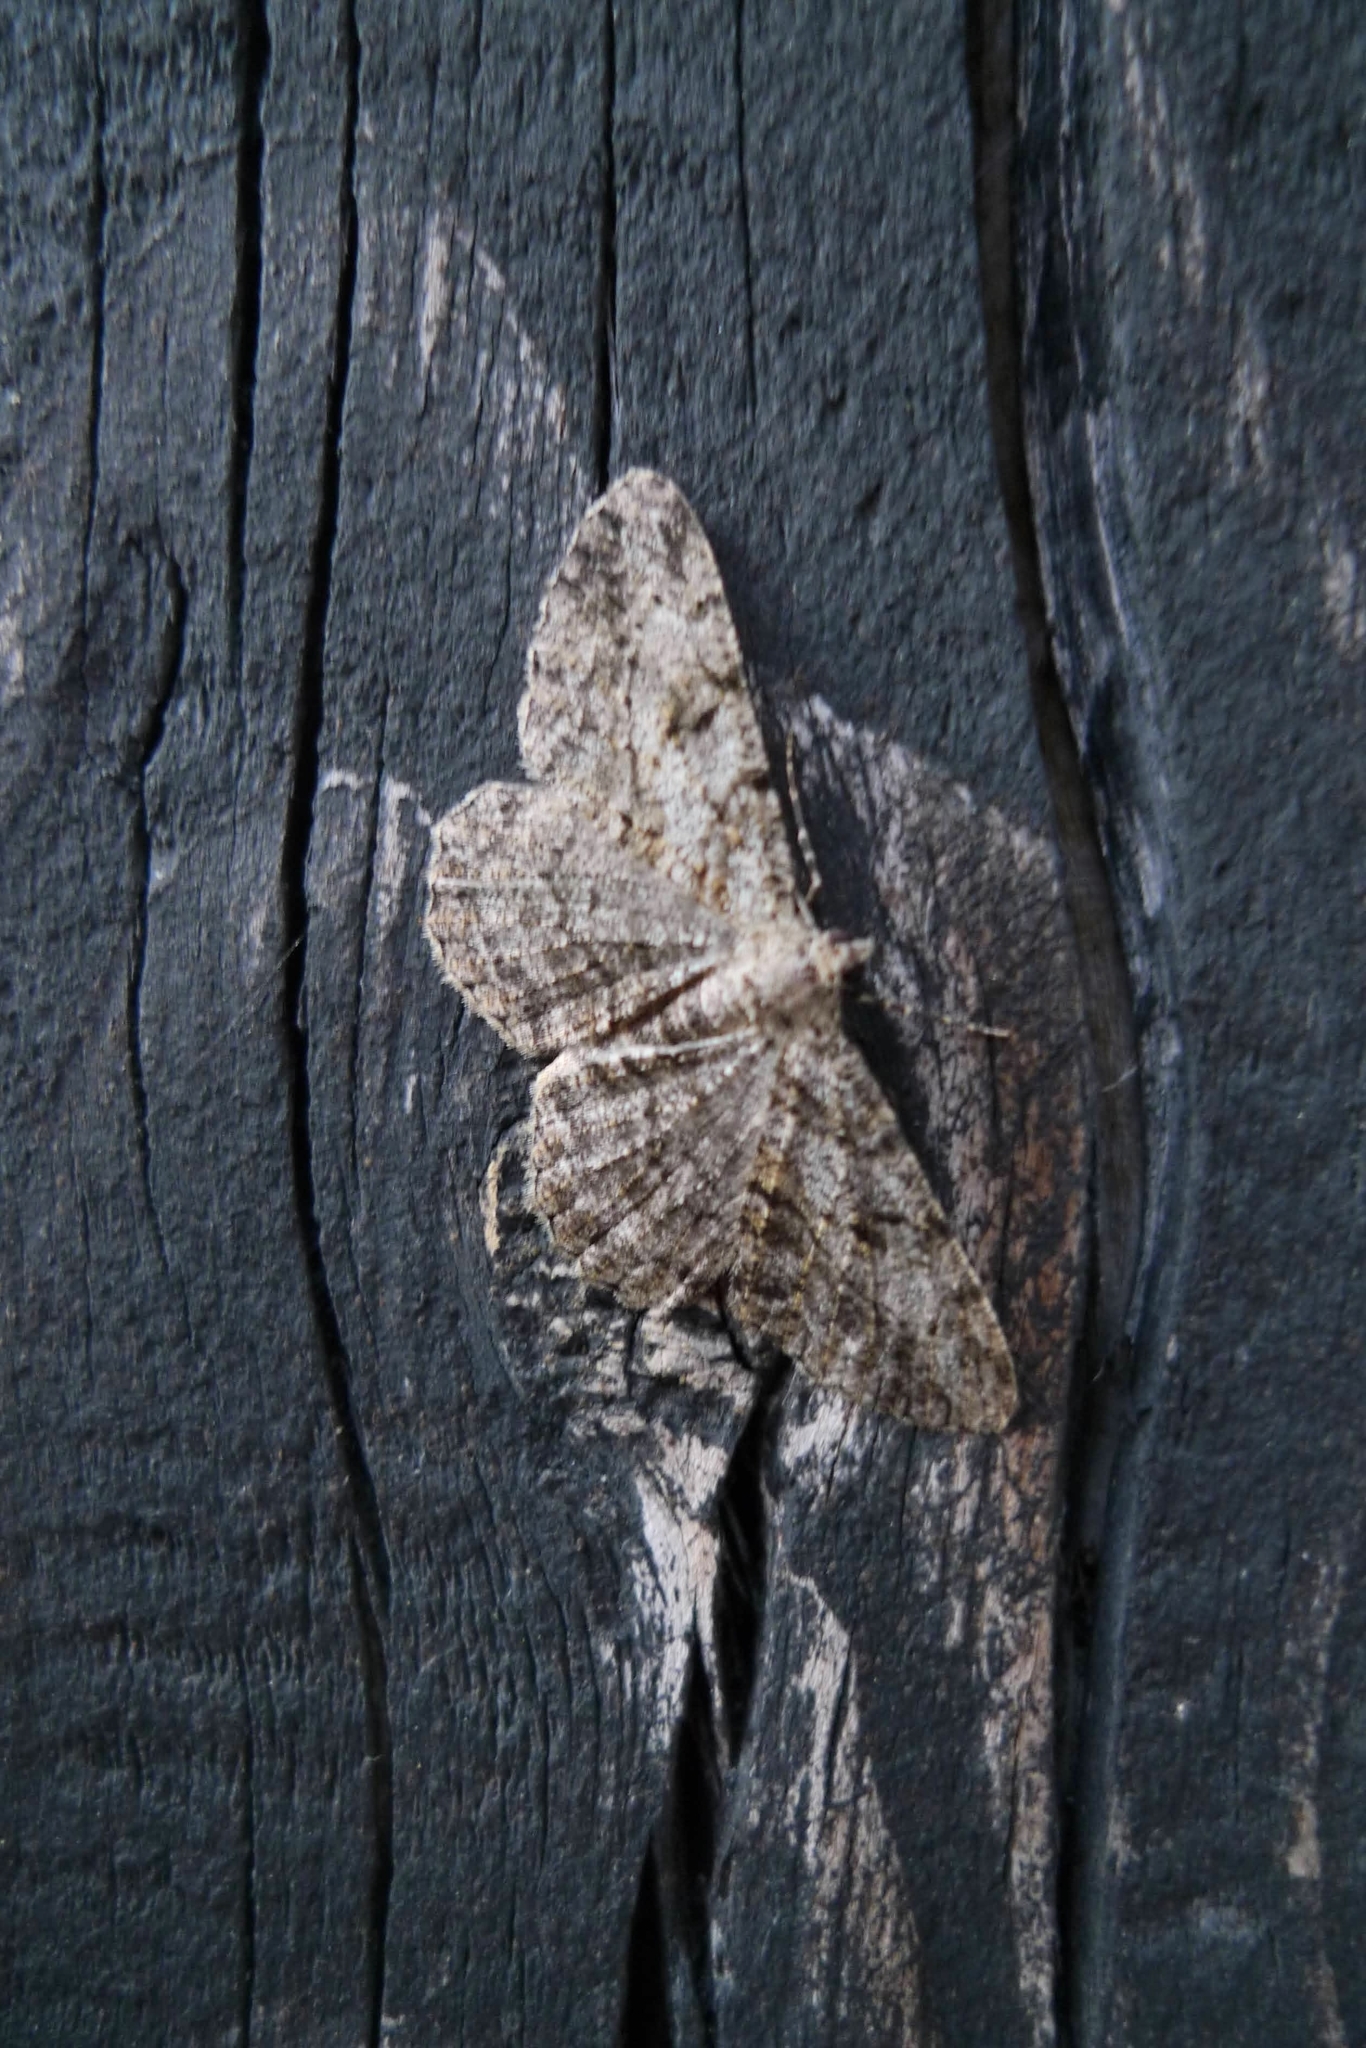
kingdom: Animalia
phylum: Arthropoda
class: Insecta
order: Lepidoptera
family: Geometridae
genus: Peribatodes
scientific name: Peribatodes rhomboidaria
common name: Willow beauty
